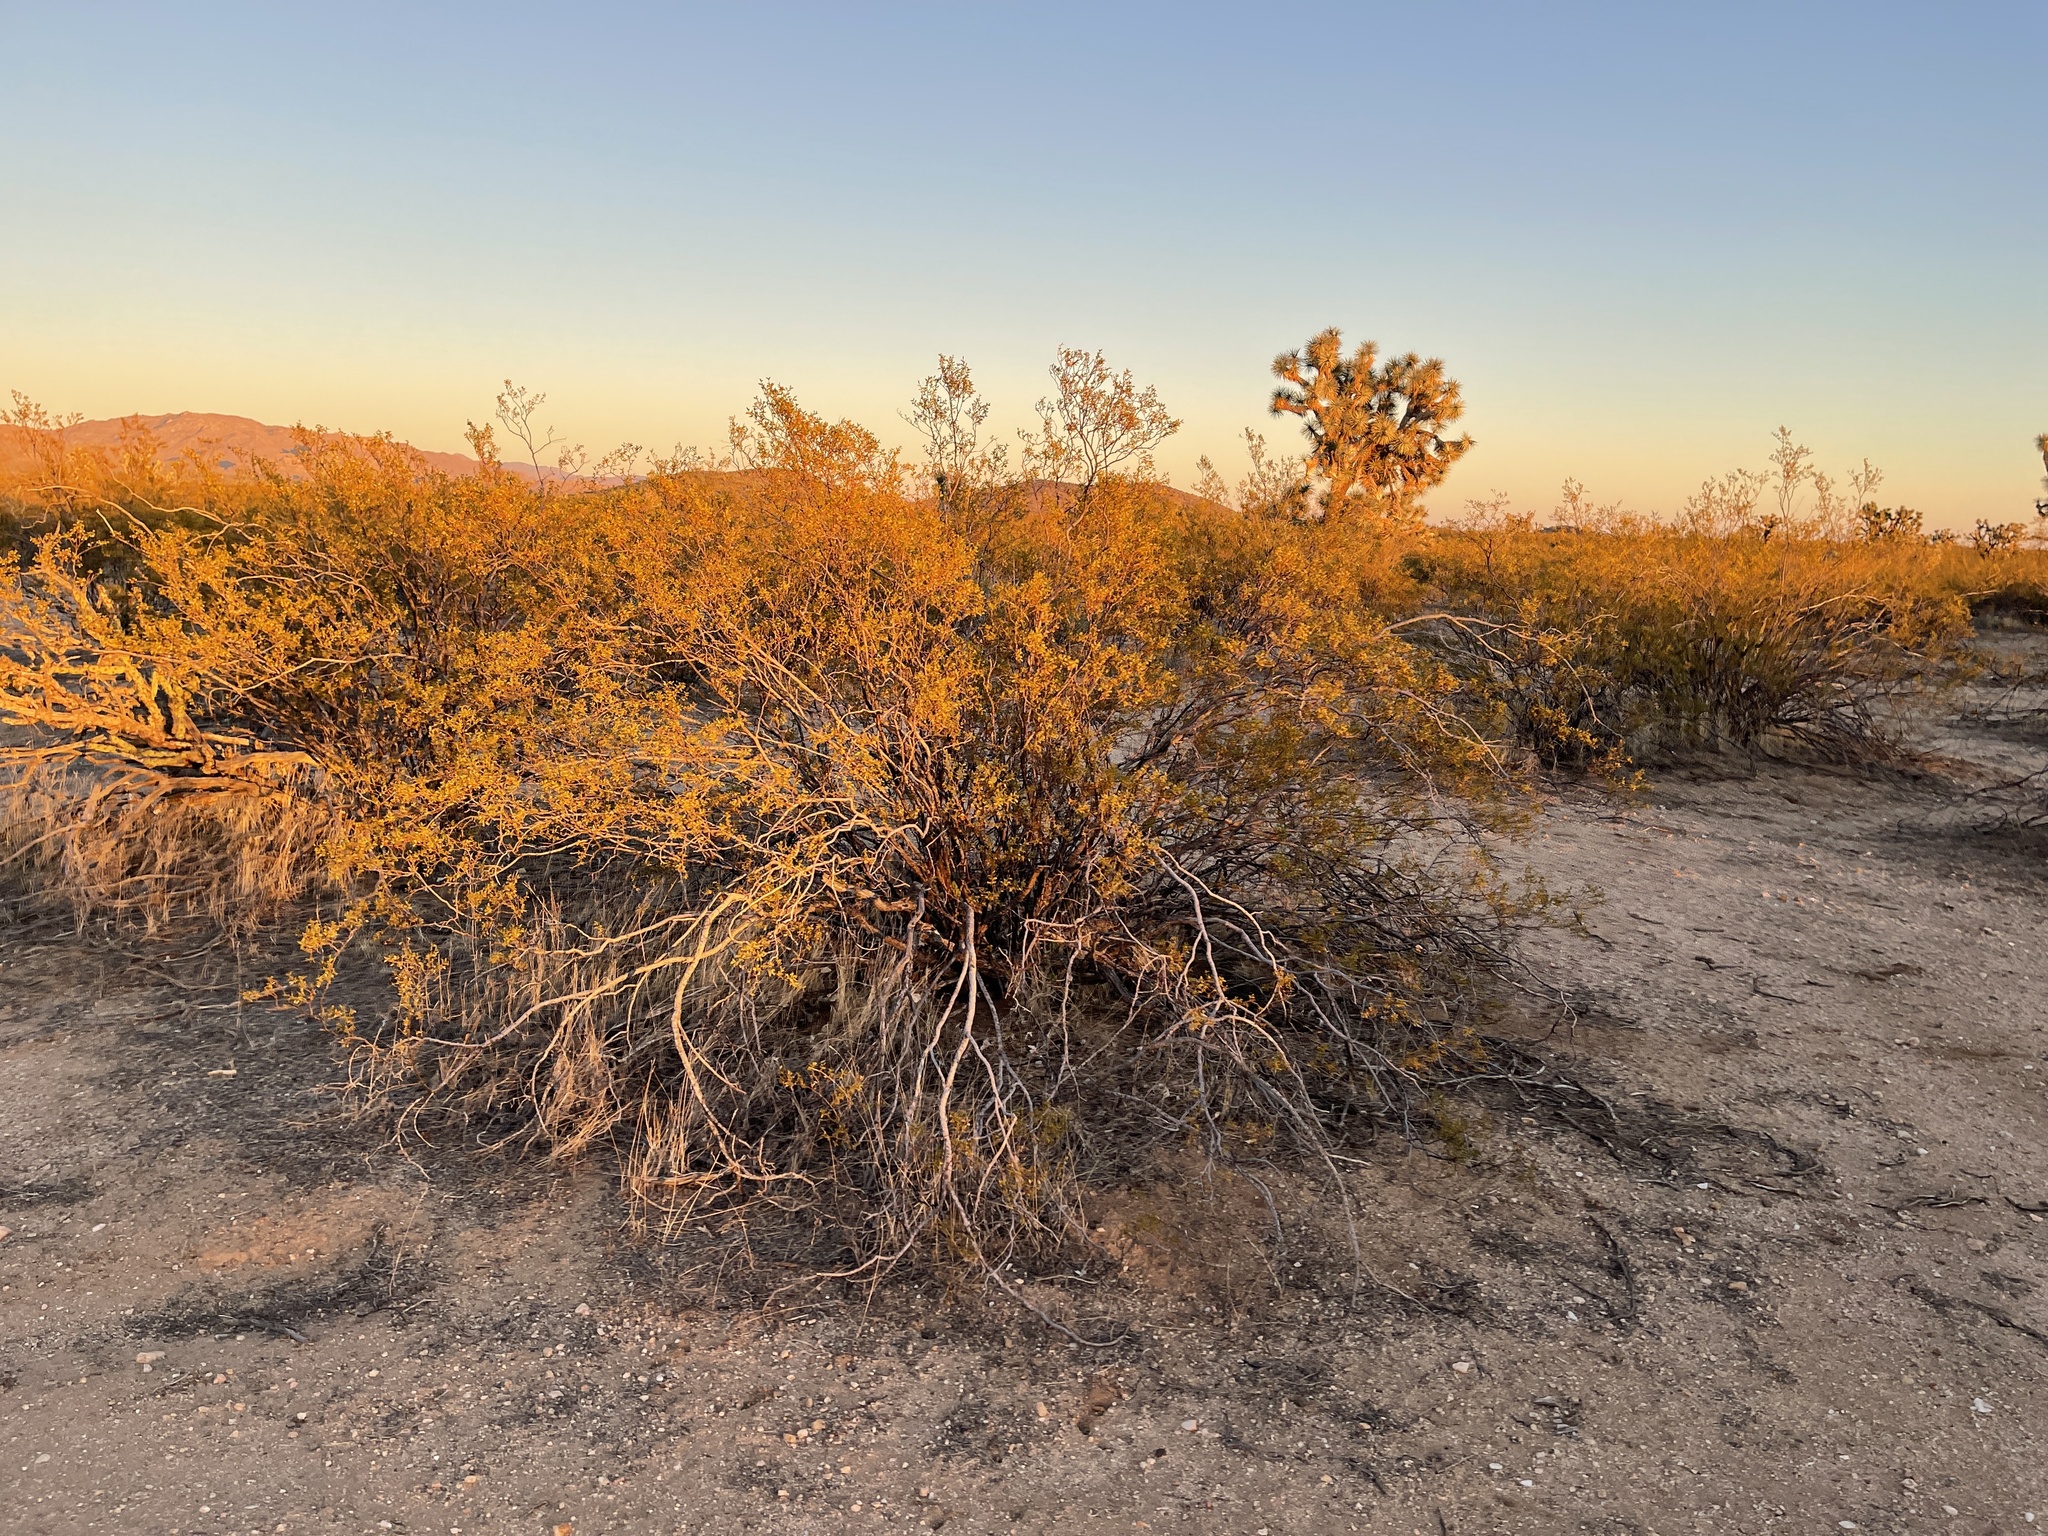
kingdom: Plantae
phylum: Tracheophyta
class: Magnoliopsida
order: Zygophyllales
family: Zygophyllaceae
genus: Larrea
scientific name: Larrea tridentata
